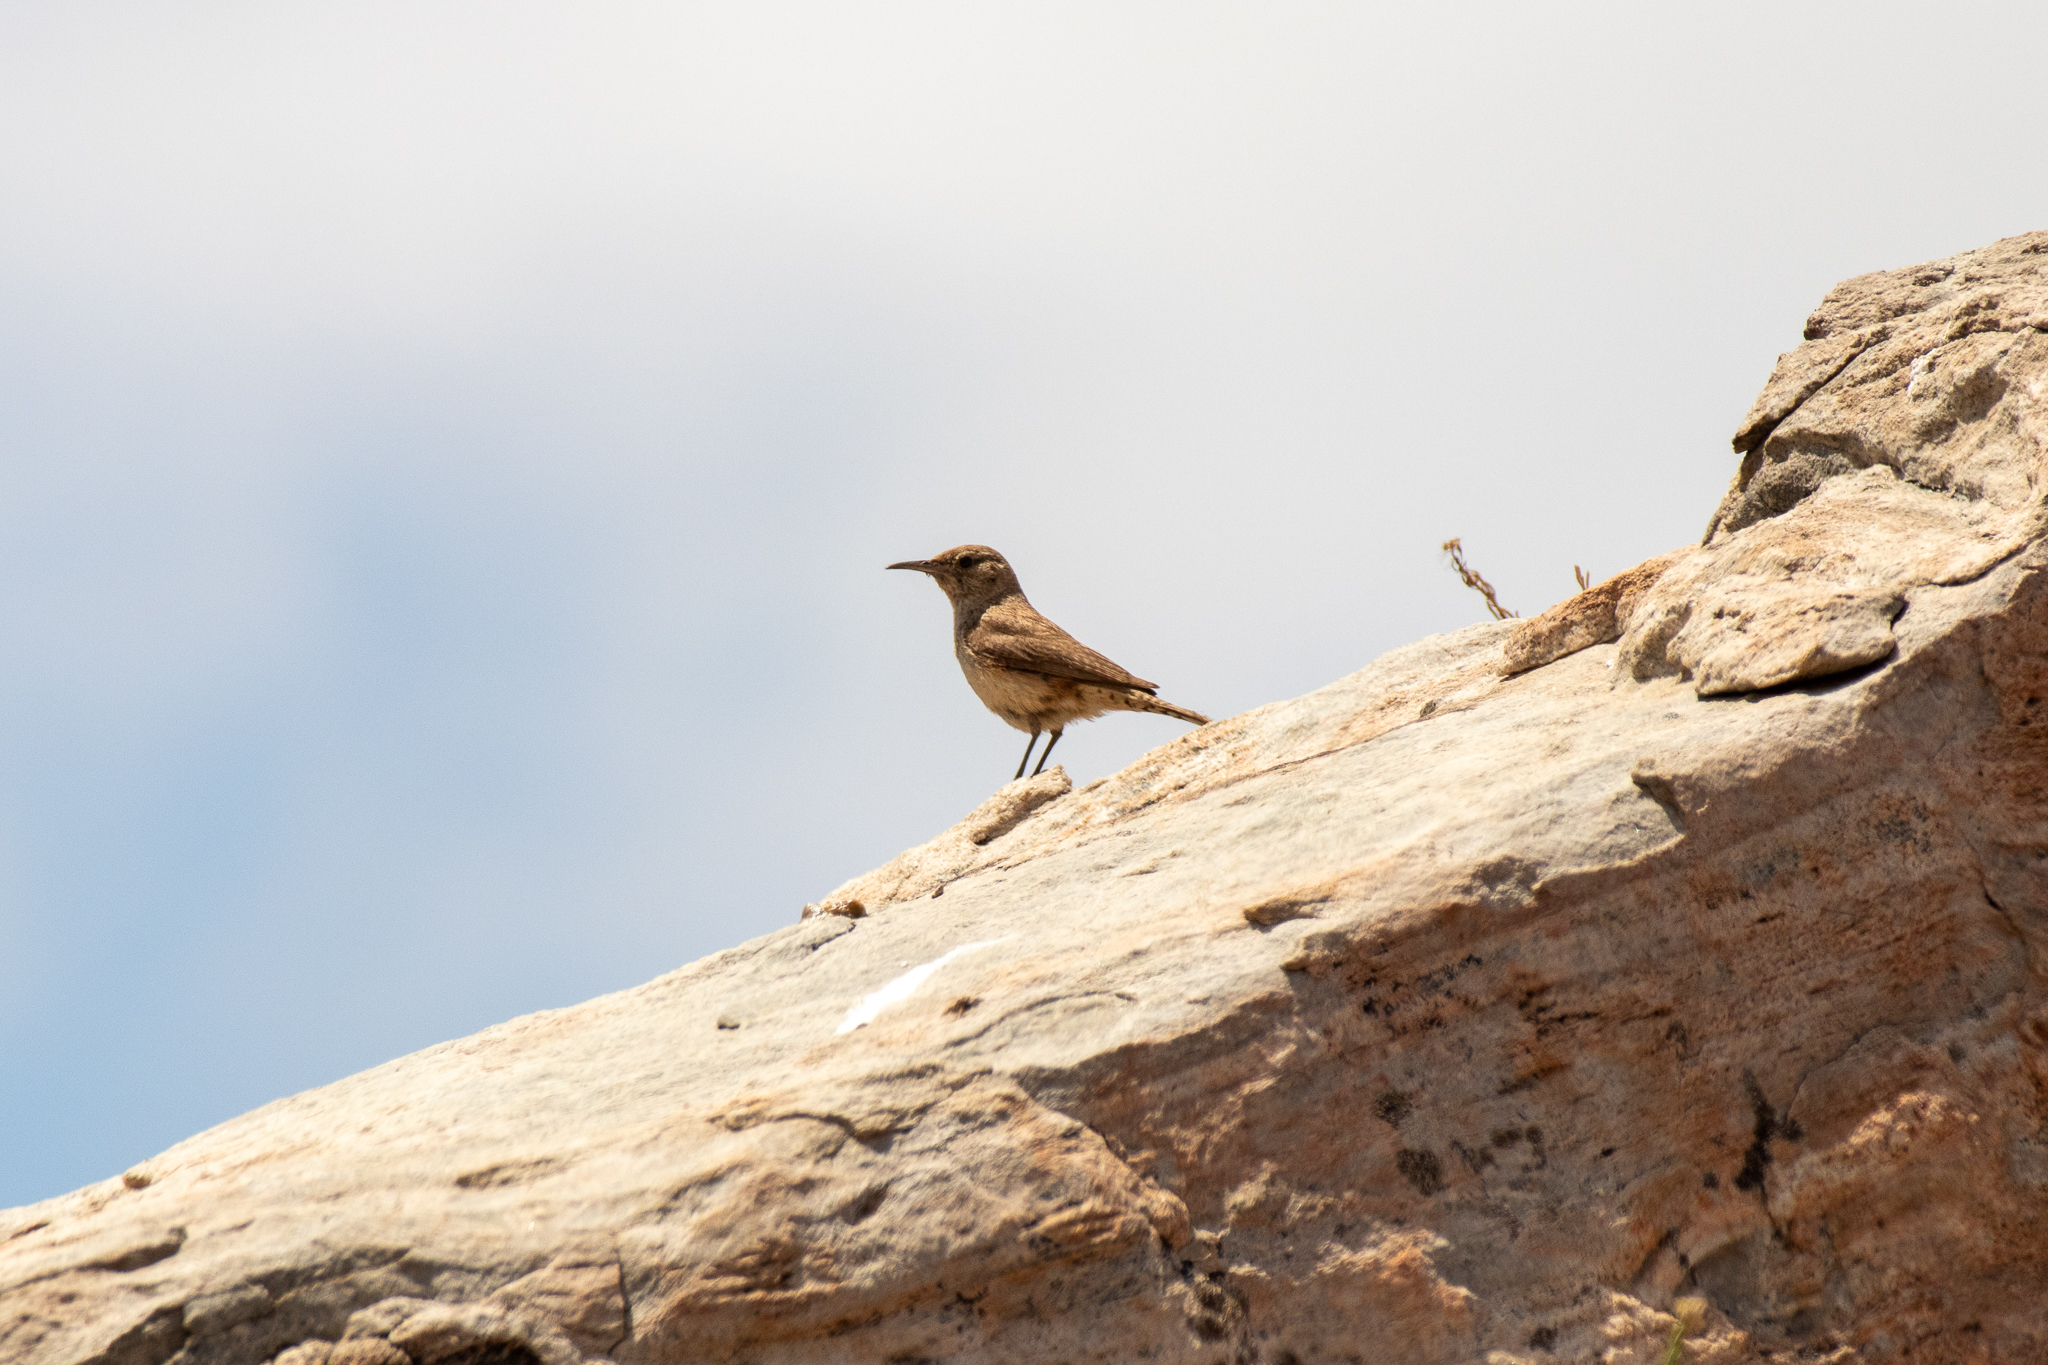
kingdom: Animalia
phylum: Chordata
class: Aves
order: Passeriformes
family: Troglodytidae
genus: Salpinctes
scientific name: Salpinctes obsoletus
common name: Rock wren
